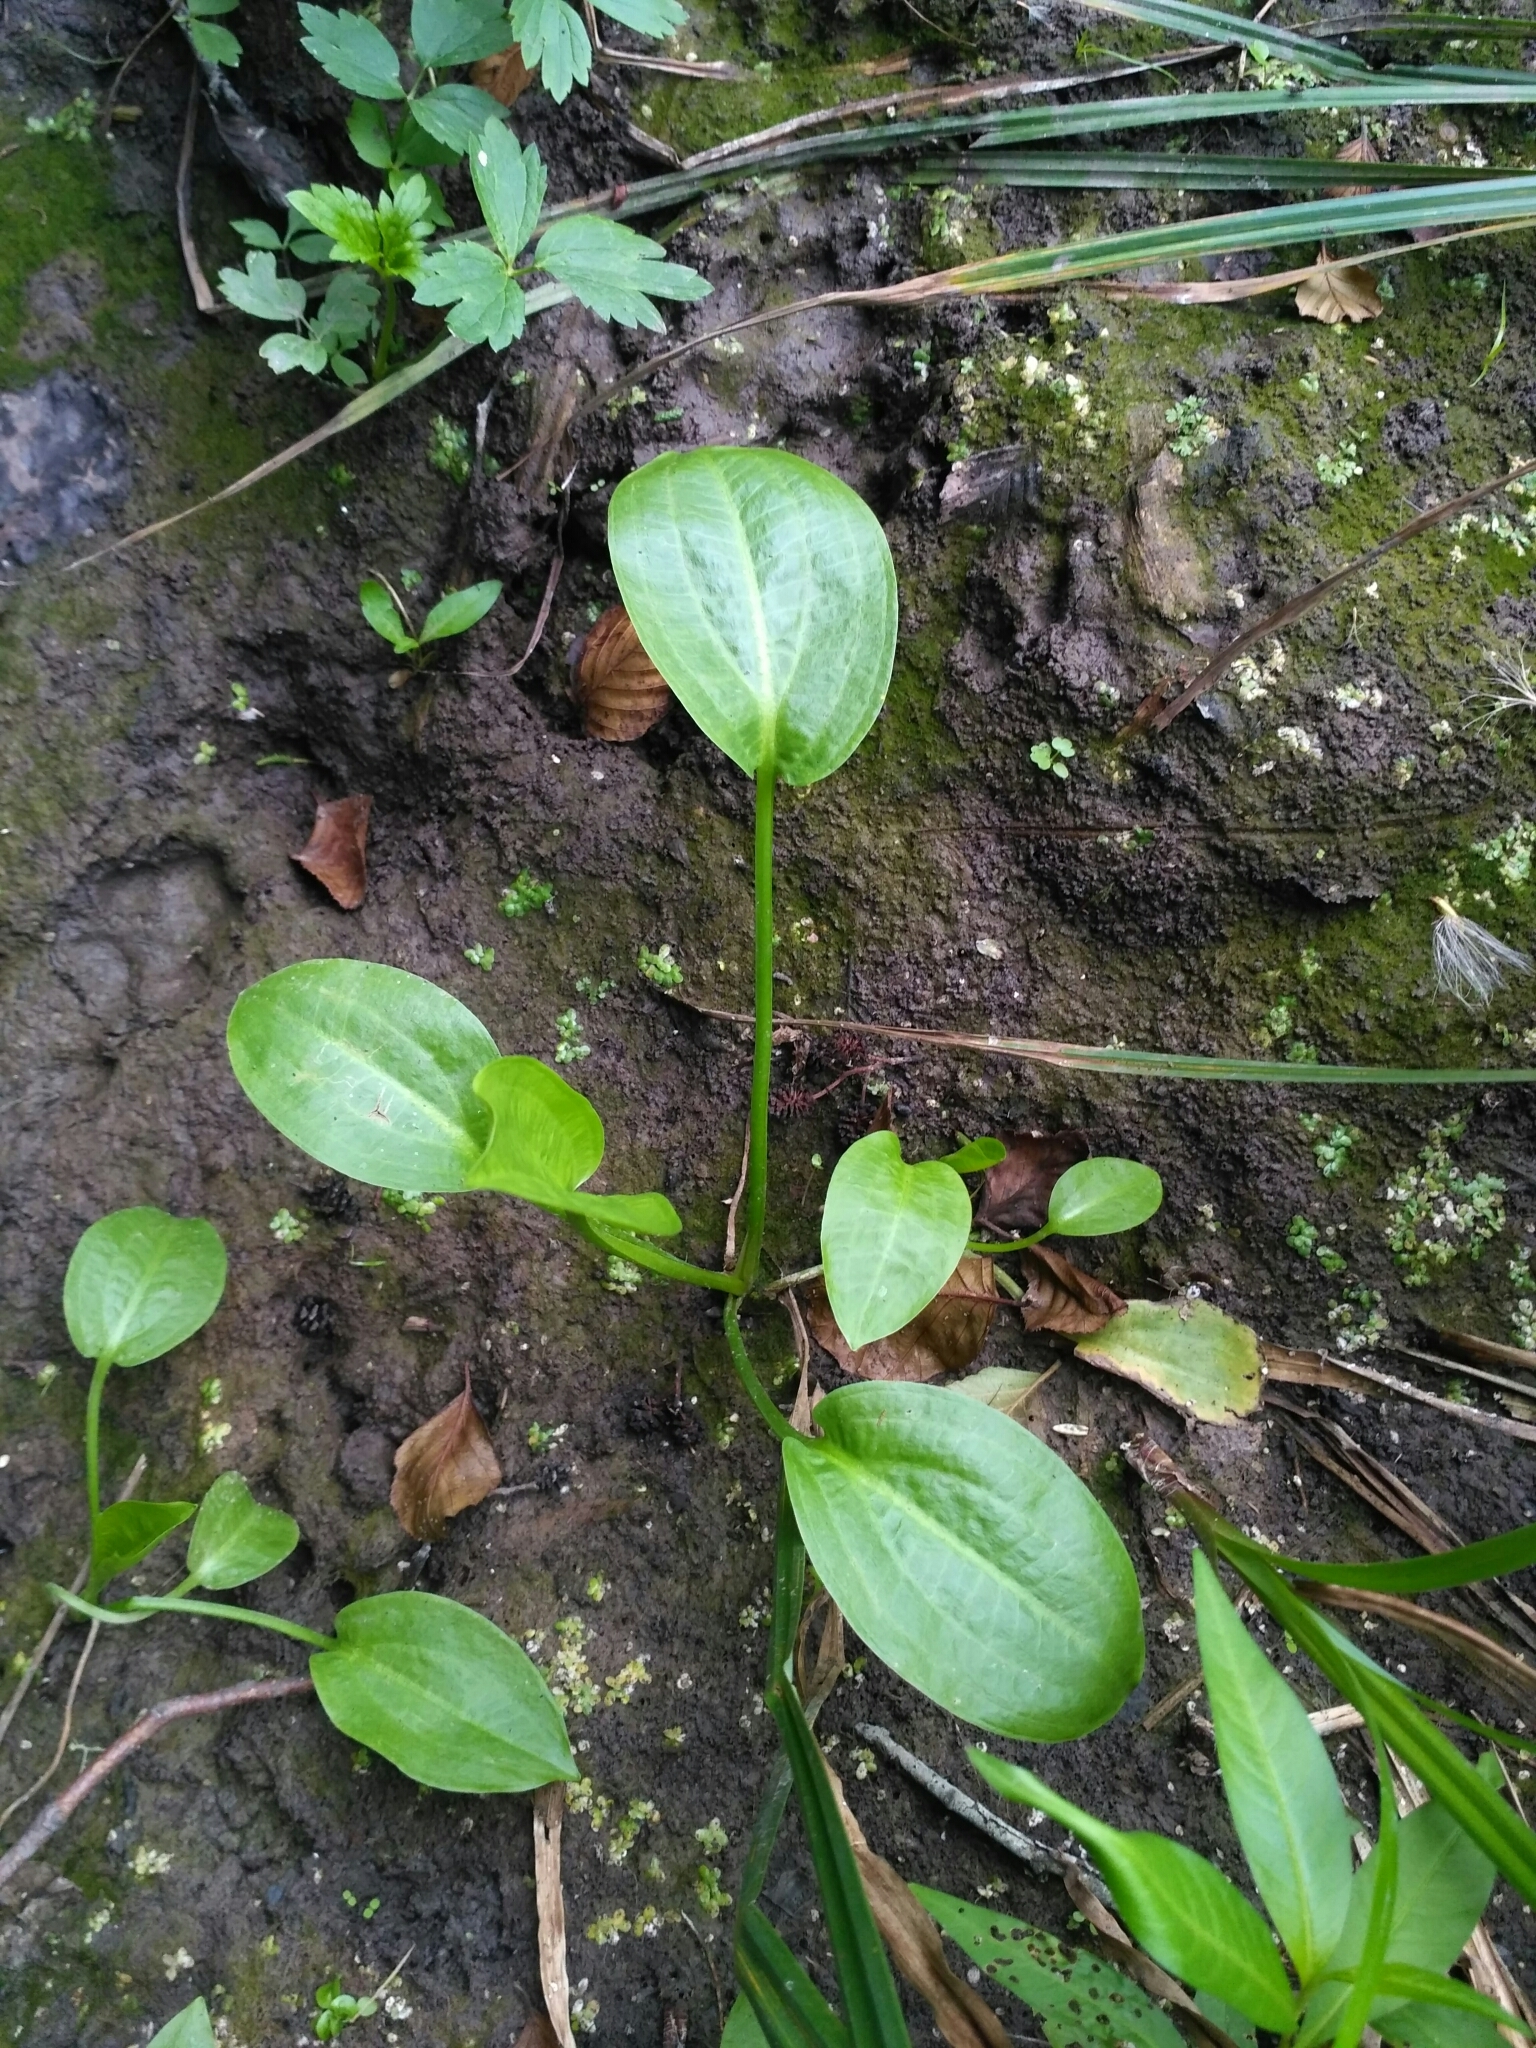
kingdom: Plantae
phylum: Tracheophyta
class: Liliopsida
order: Alismatales
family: Alismataceae
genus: Alisma
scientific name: Alisma plantago-aquatica
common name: Water-plantain
